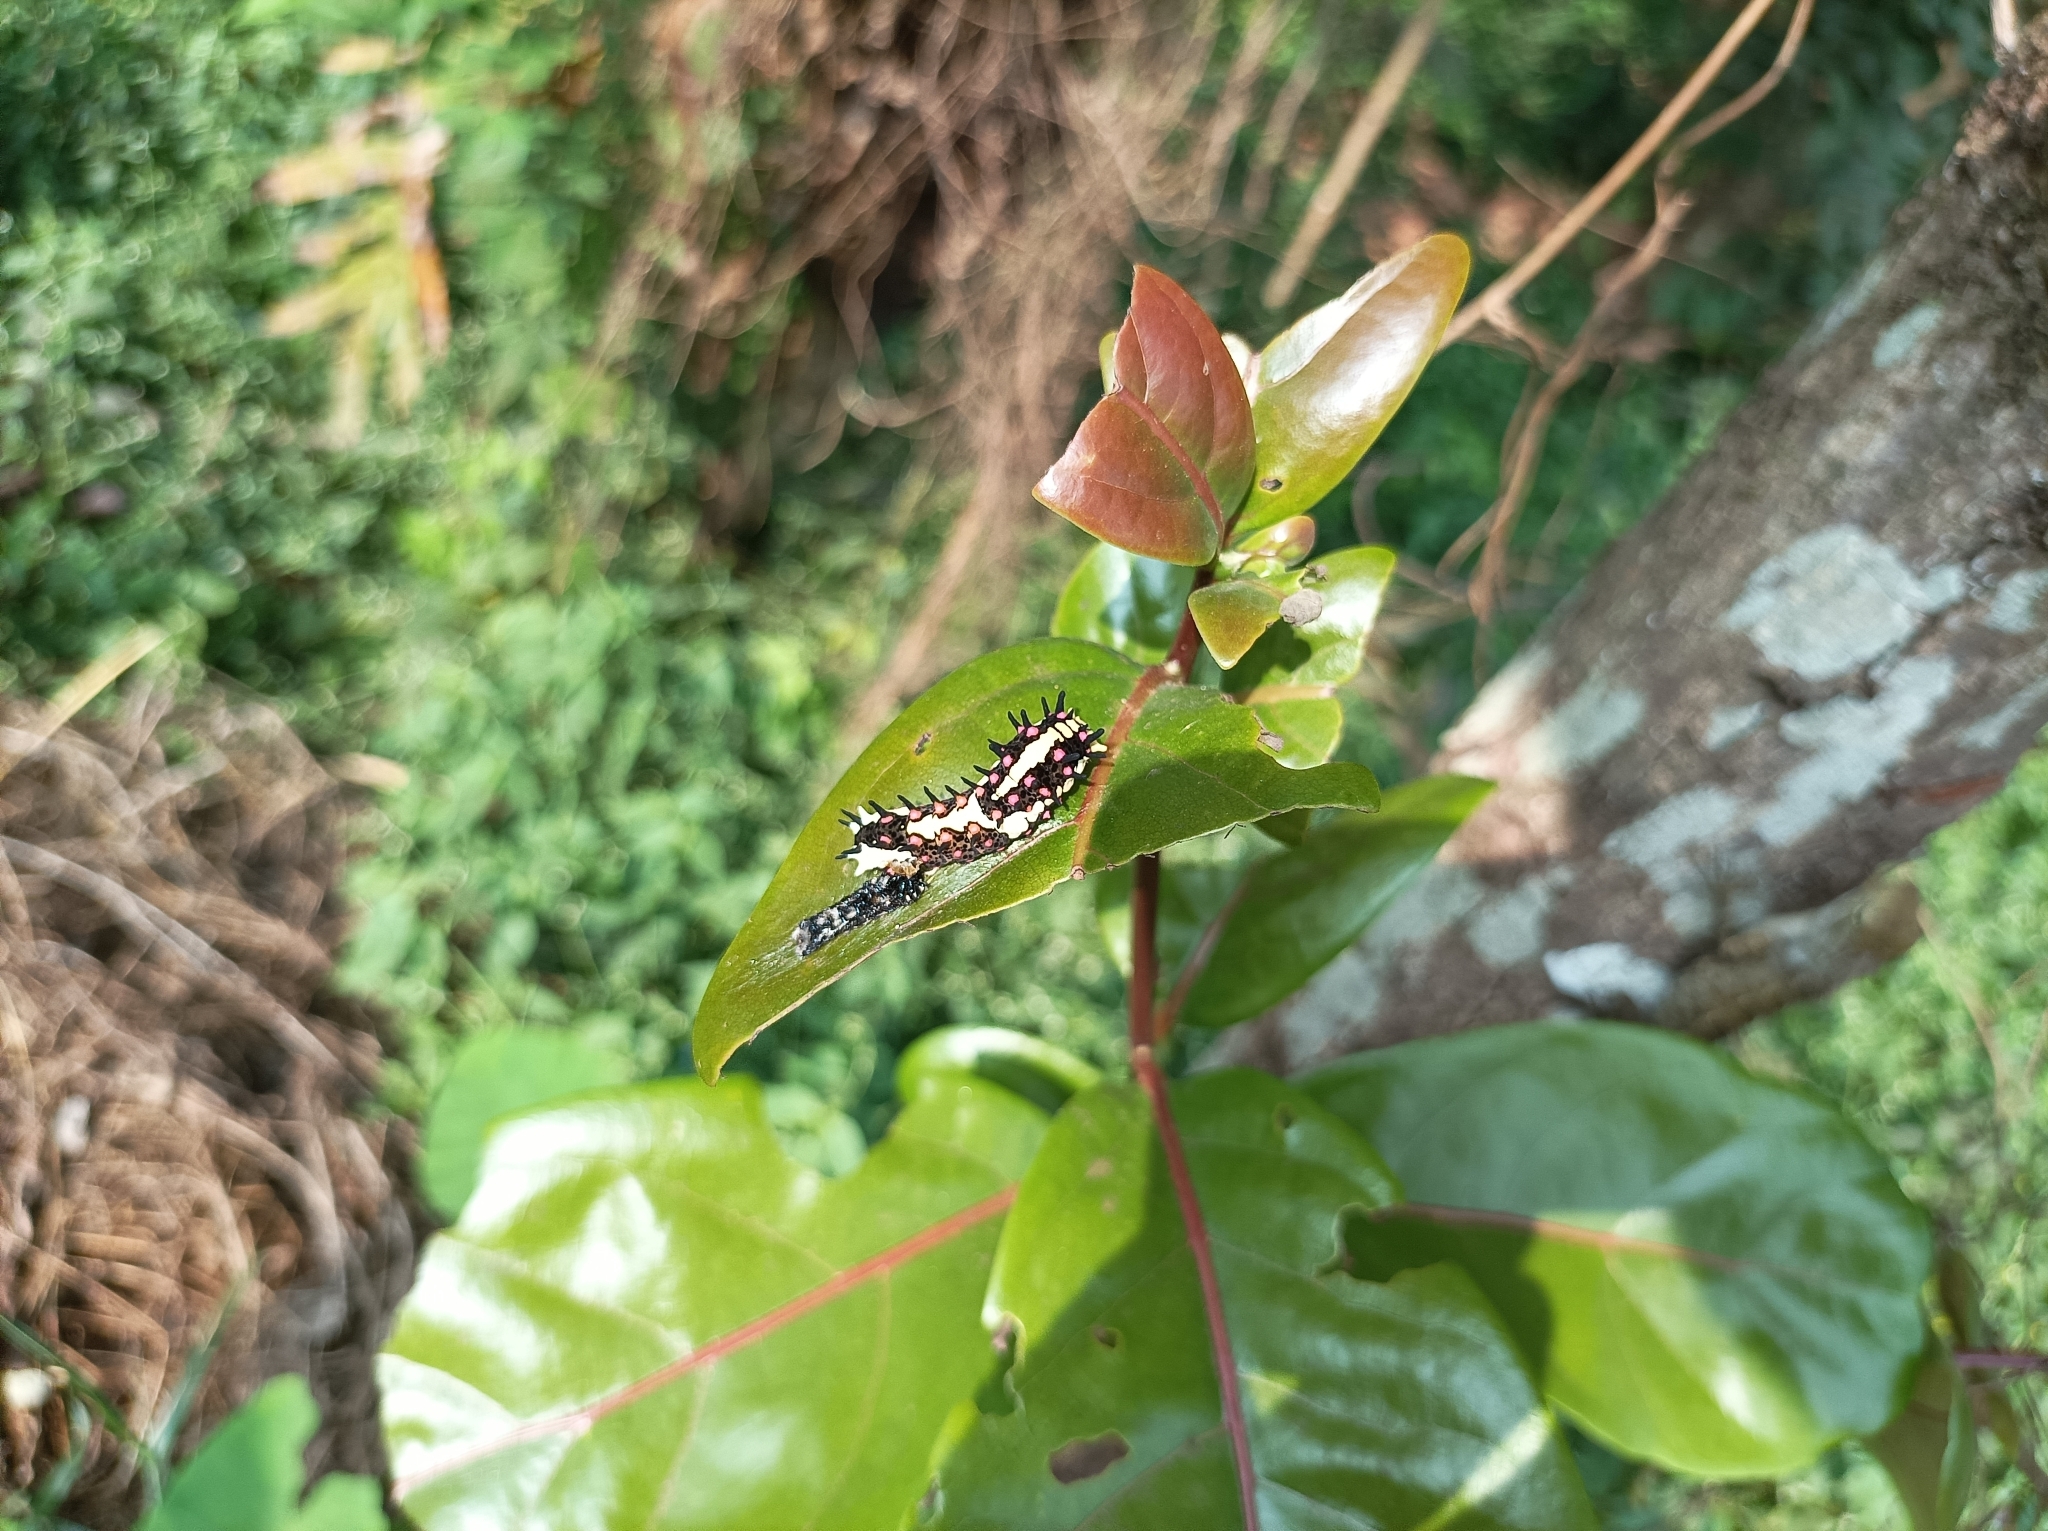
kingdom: Animalia
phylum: Arthropoda
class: Insecta
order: Lepidoptera
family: Papilionidae
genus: Chilasa
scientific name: Chilasa clytia
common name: Common mime
